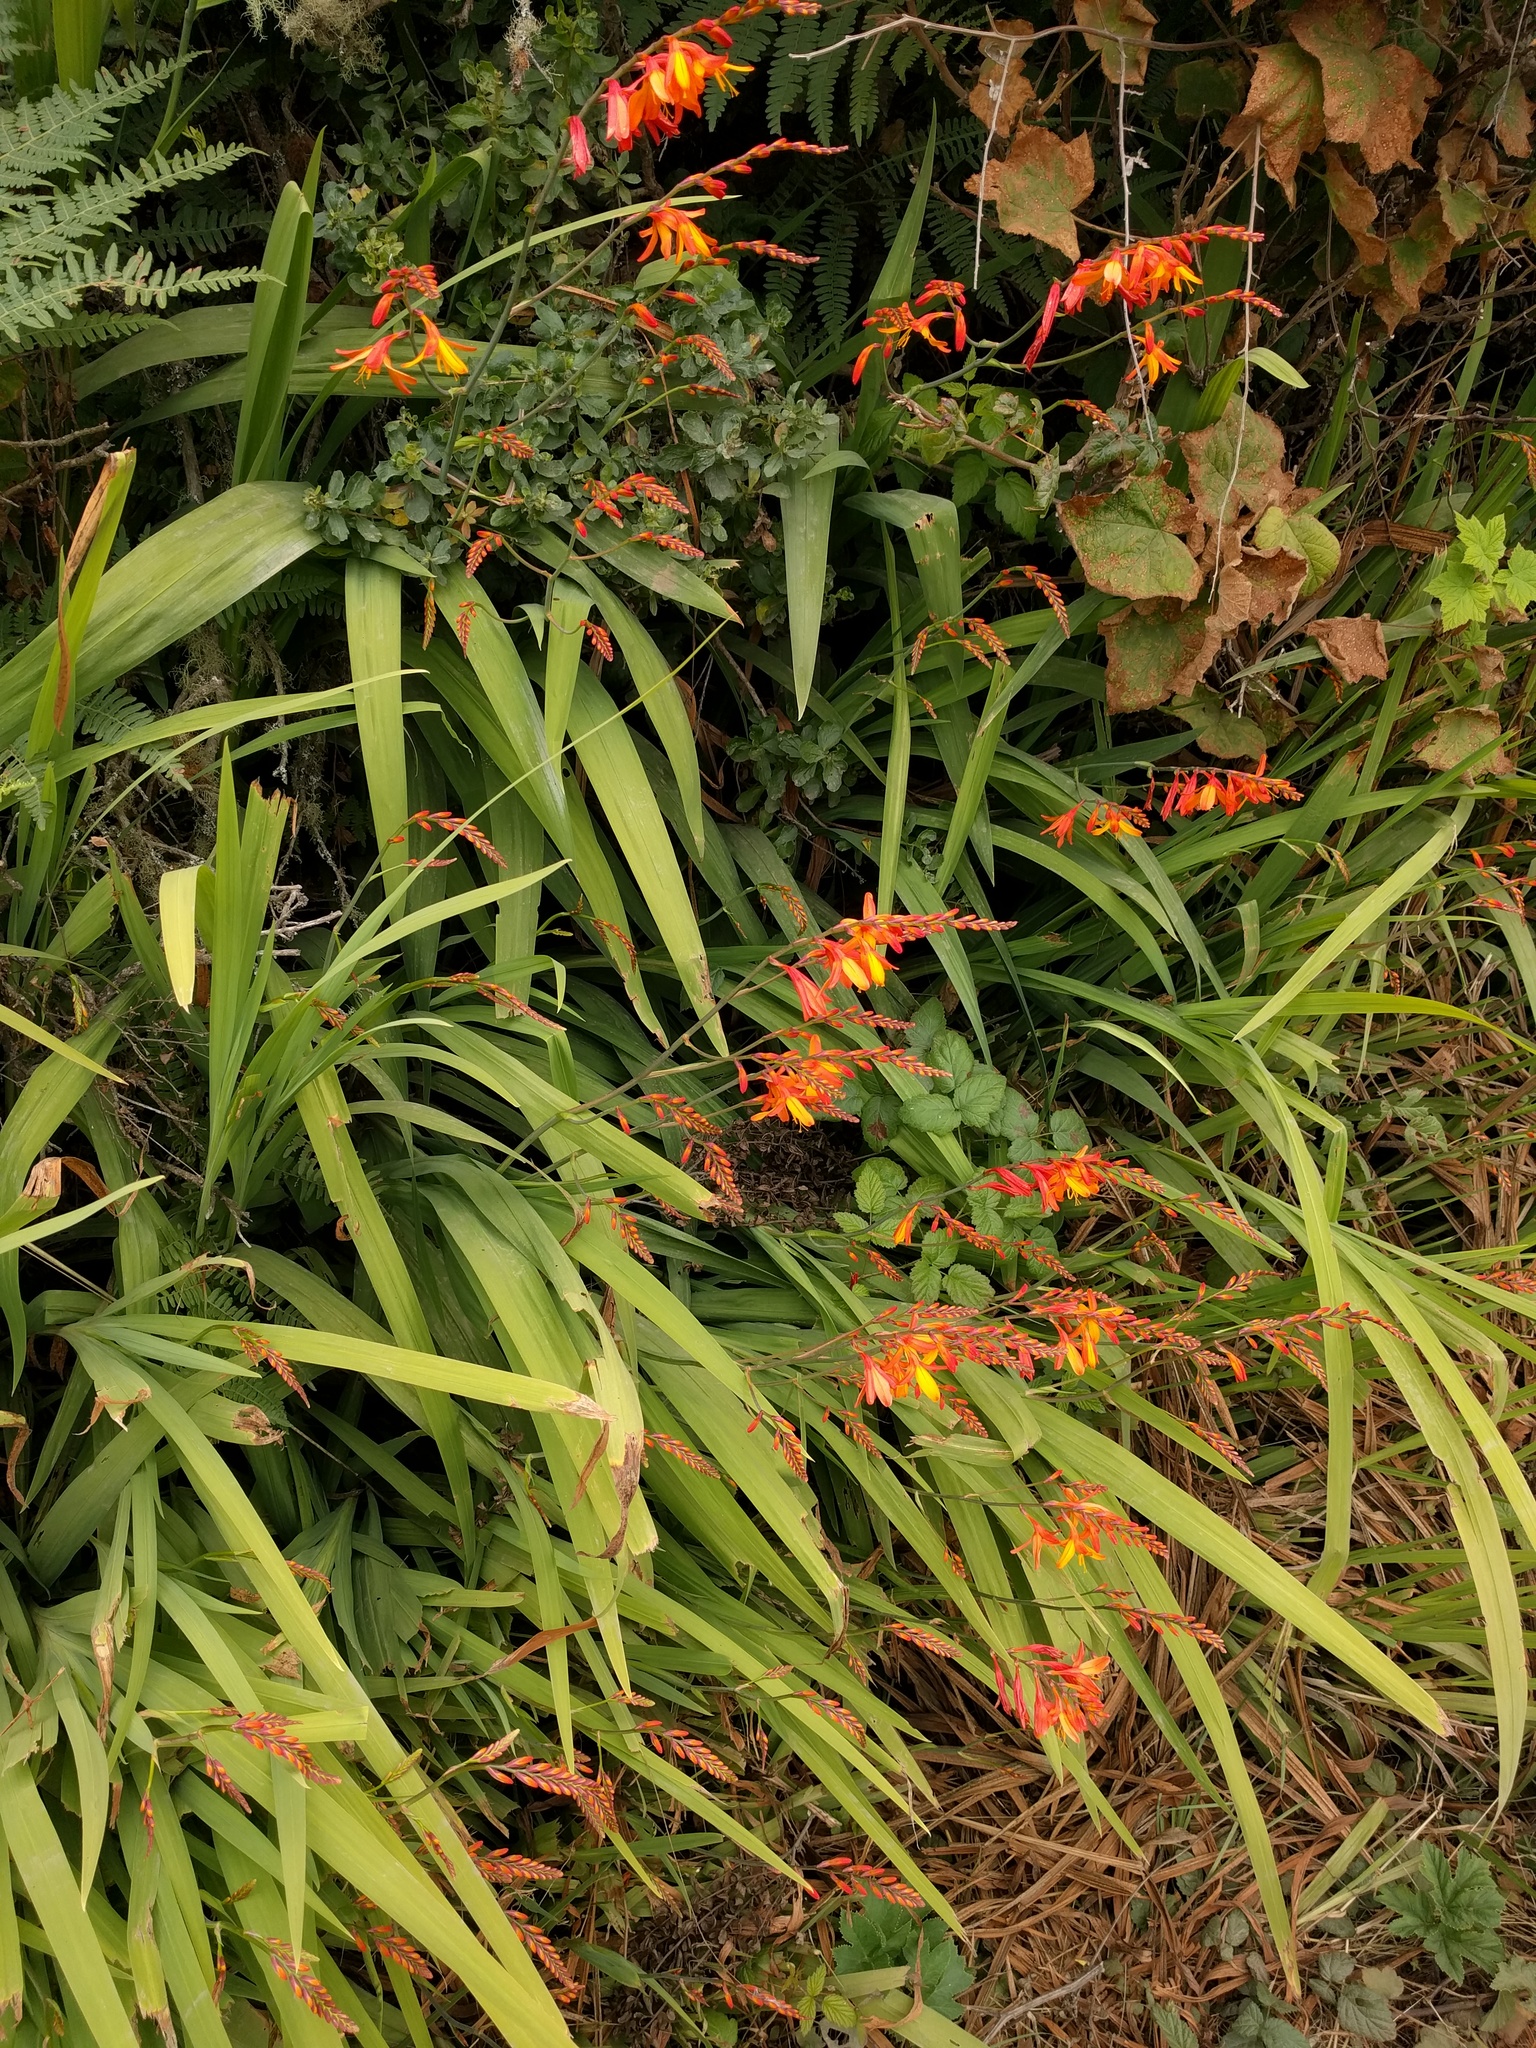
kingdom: Plantae
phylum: Tracheophyta
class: Liliopsida
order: Asparagales
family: Iridaceae
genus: Crocosmia
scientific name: Crocosmia crocosmiiflora
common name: Montbretia
